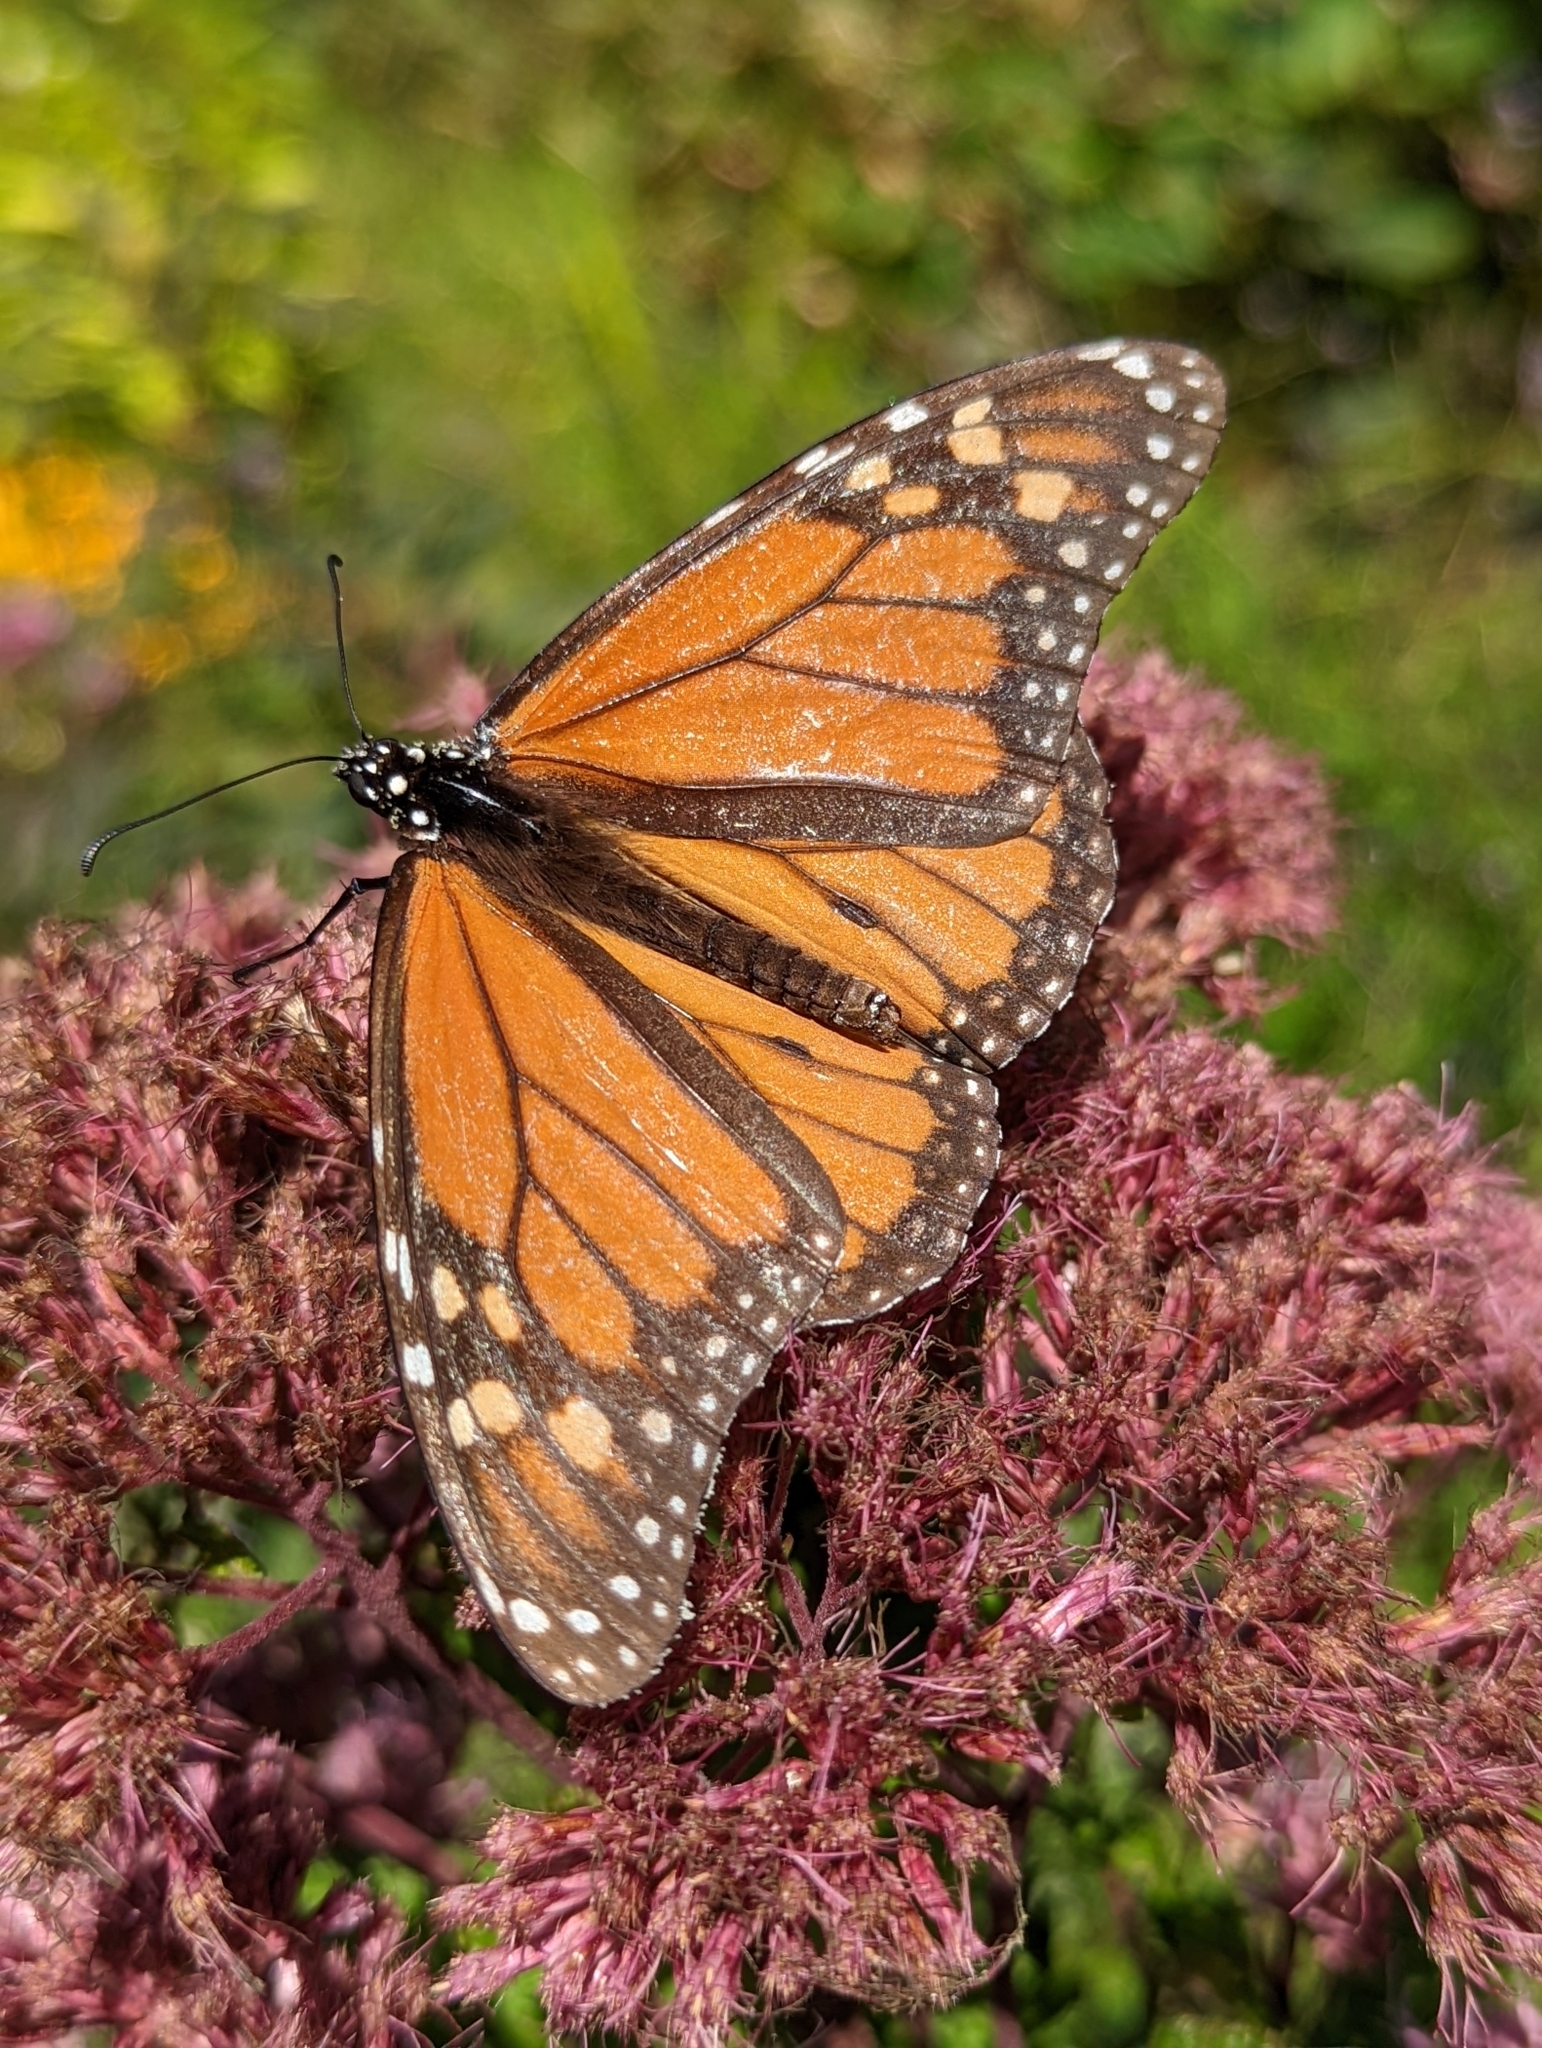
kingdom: Animalia
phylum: Arthropoda
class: Insecta
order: Lepidoptera
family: Nymphalidae
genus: Danaus
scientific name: Danaus plexippus
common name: Monarch
